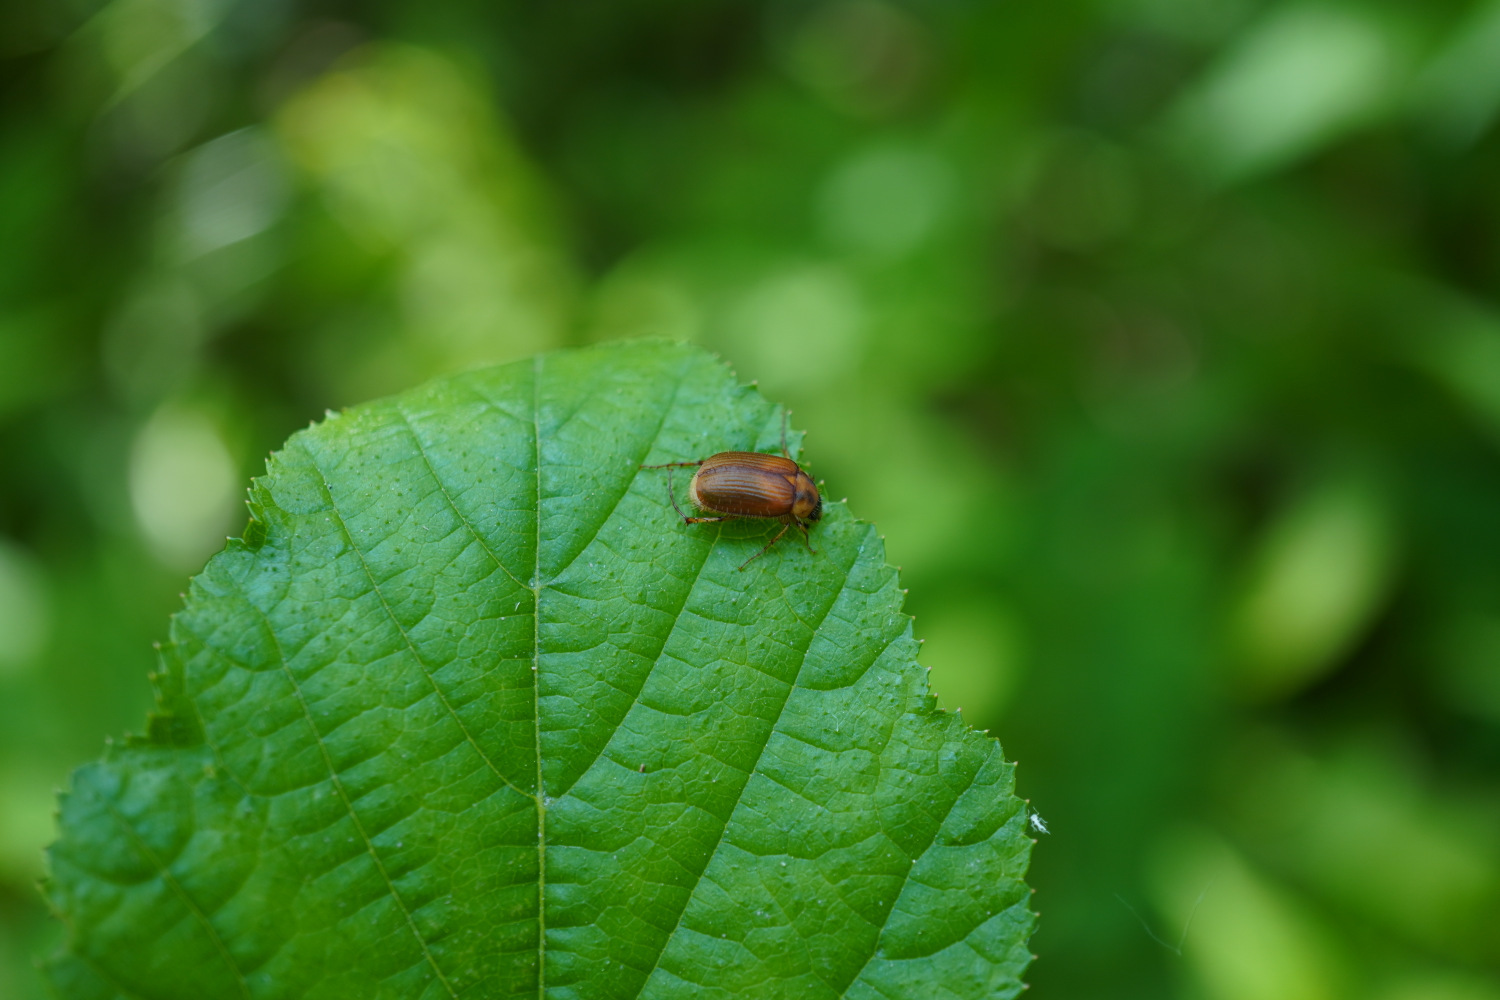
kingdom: Animalia
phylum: Arthropoda
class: Insecta
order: Coleoptera
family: Scarabaeidae
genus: Gastroserica
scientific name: Gastroserica herzi
